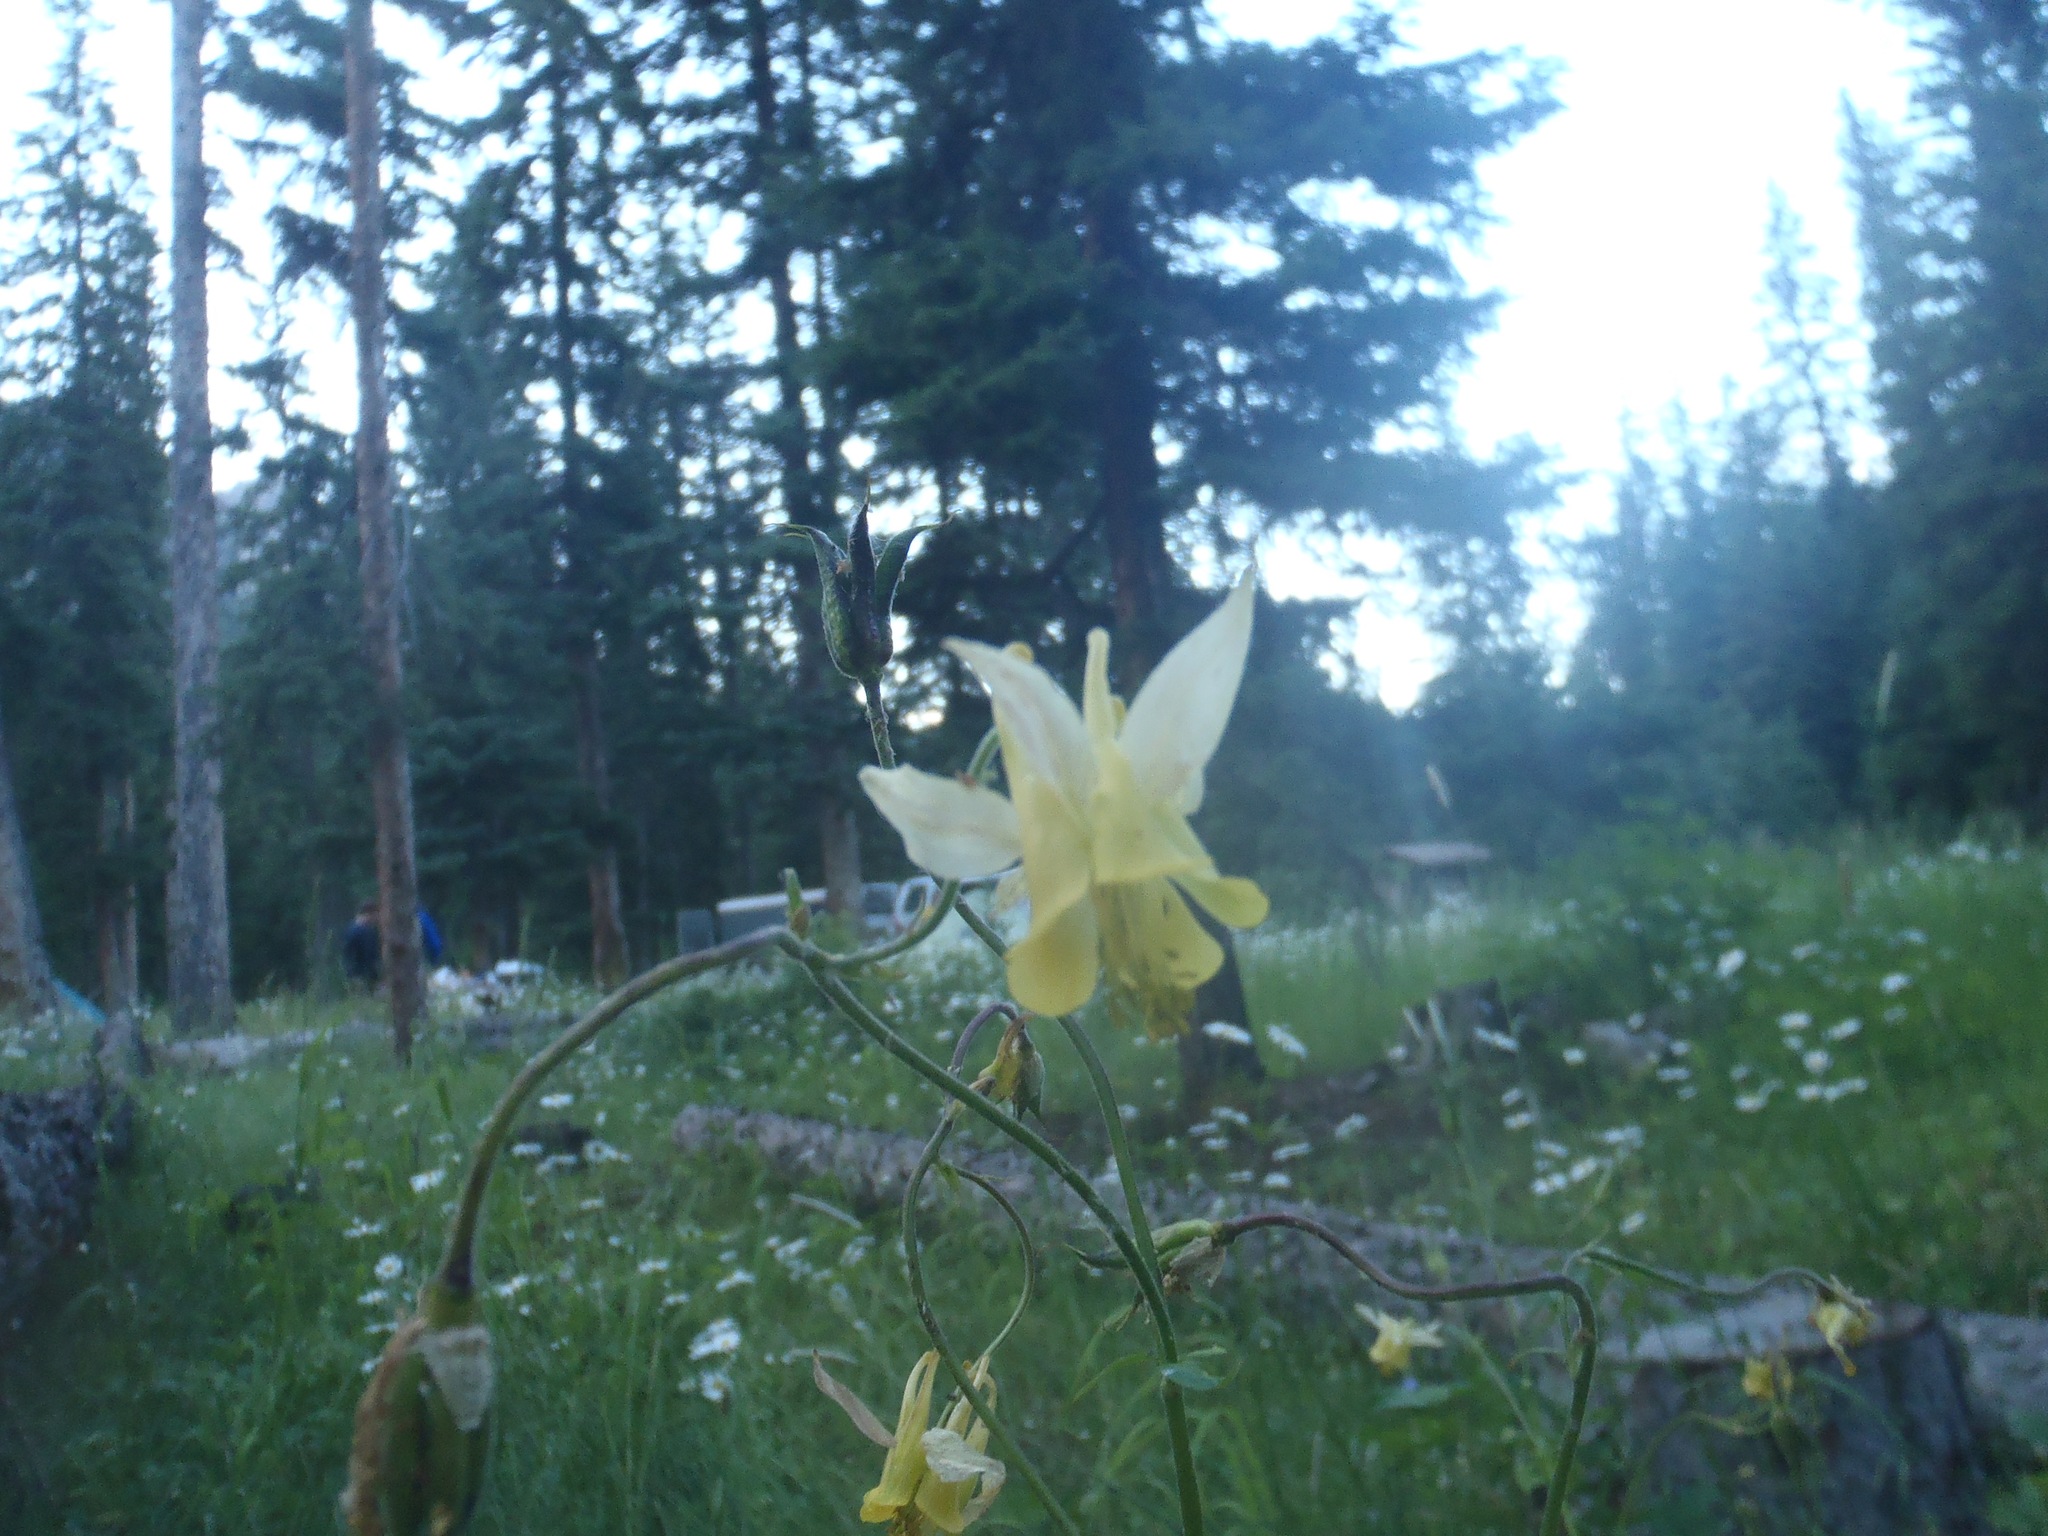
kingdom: Plantae
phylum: Tracheophyta
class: Magnoliopsida
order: Ranunculales
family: Ranunculaceae
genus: Aquilegia
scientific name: Aquilegia flavescens
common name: Yellow columbine
